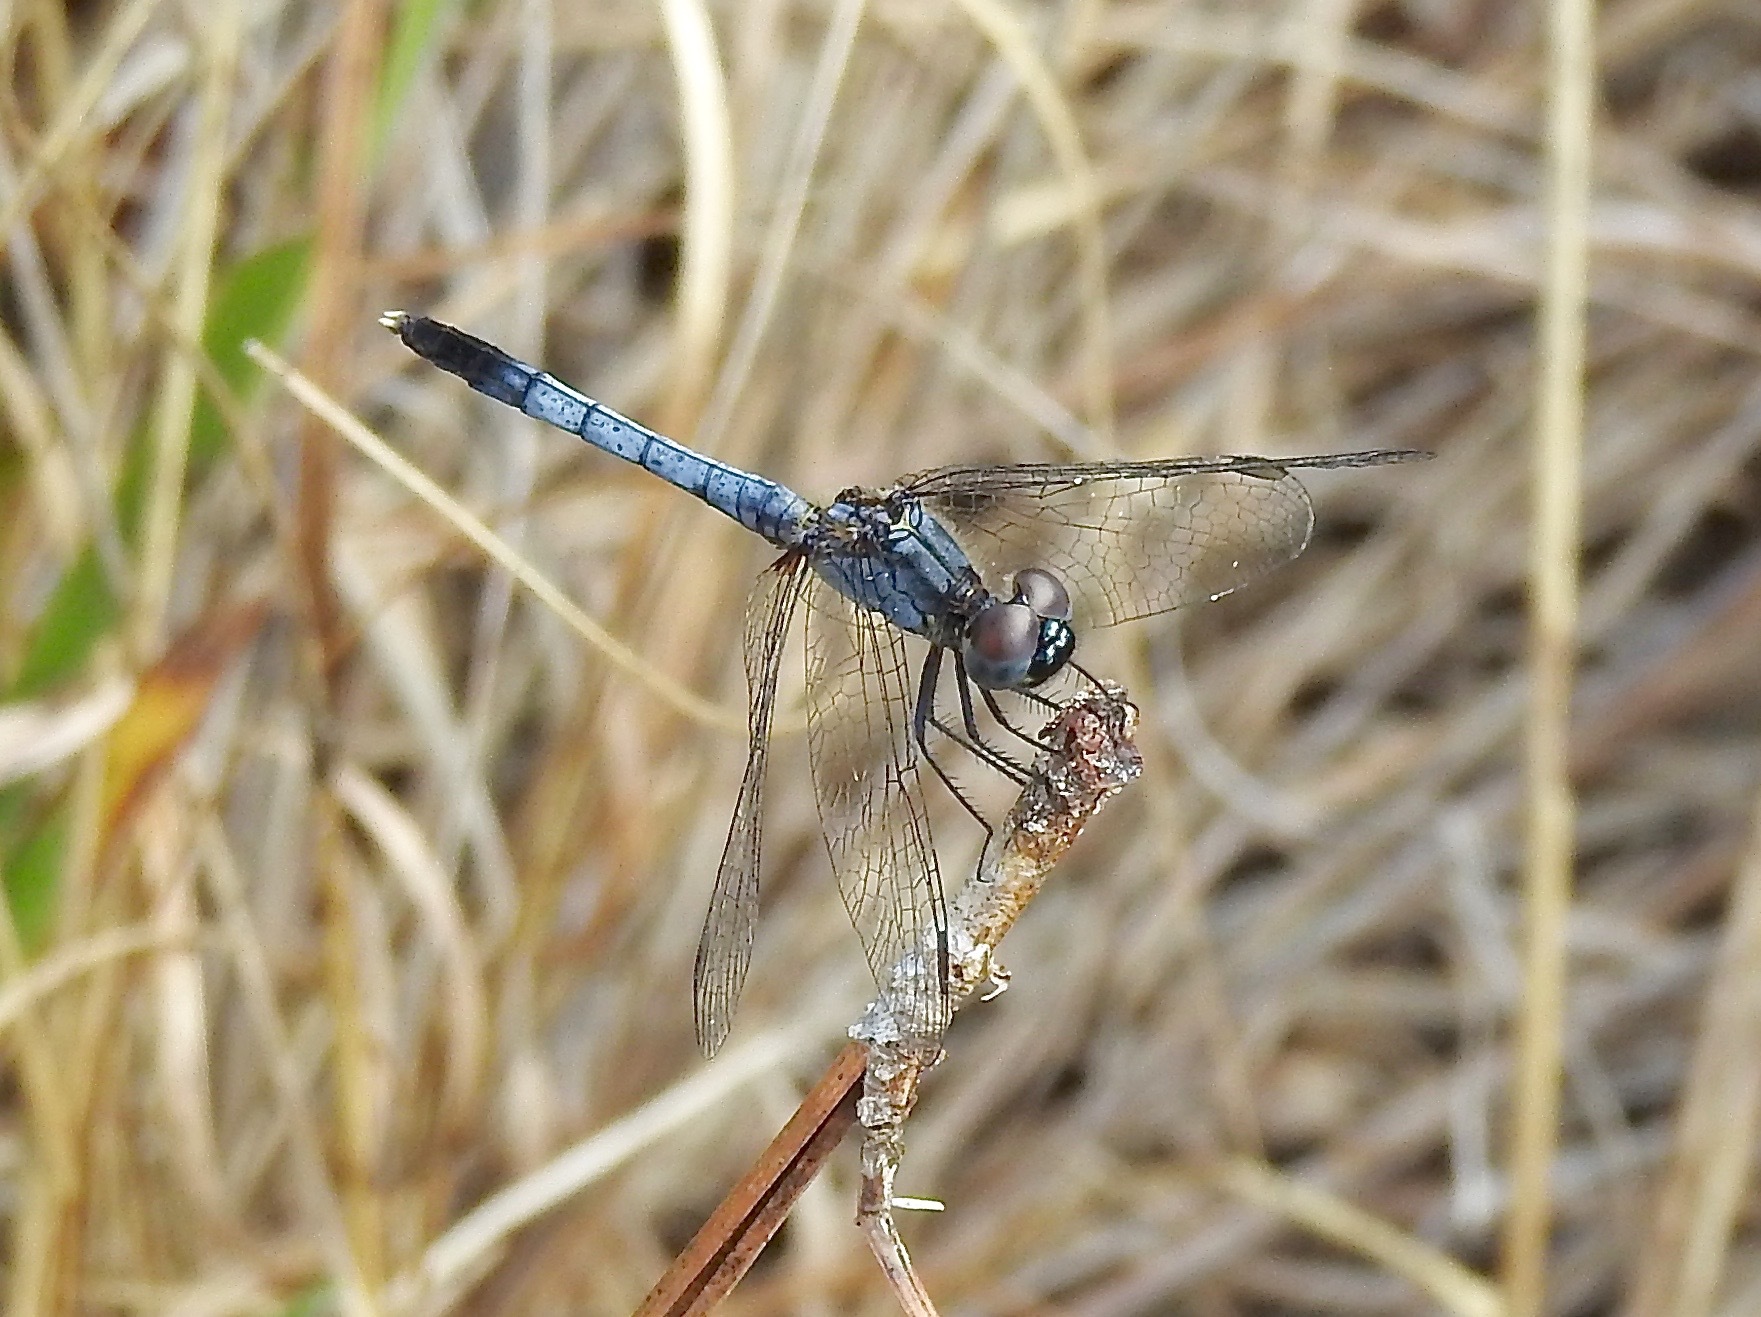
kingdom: Animalia
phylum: Arthropoda
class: Insecta
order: Odonata
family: Libellulidae
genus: Erythrodiplax
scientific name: Erythrodiplax minuscula
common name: Little blue dragonlet
